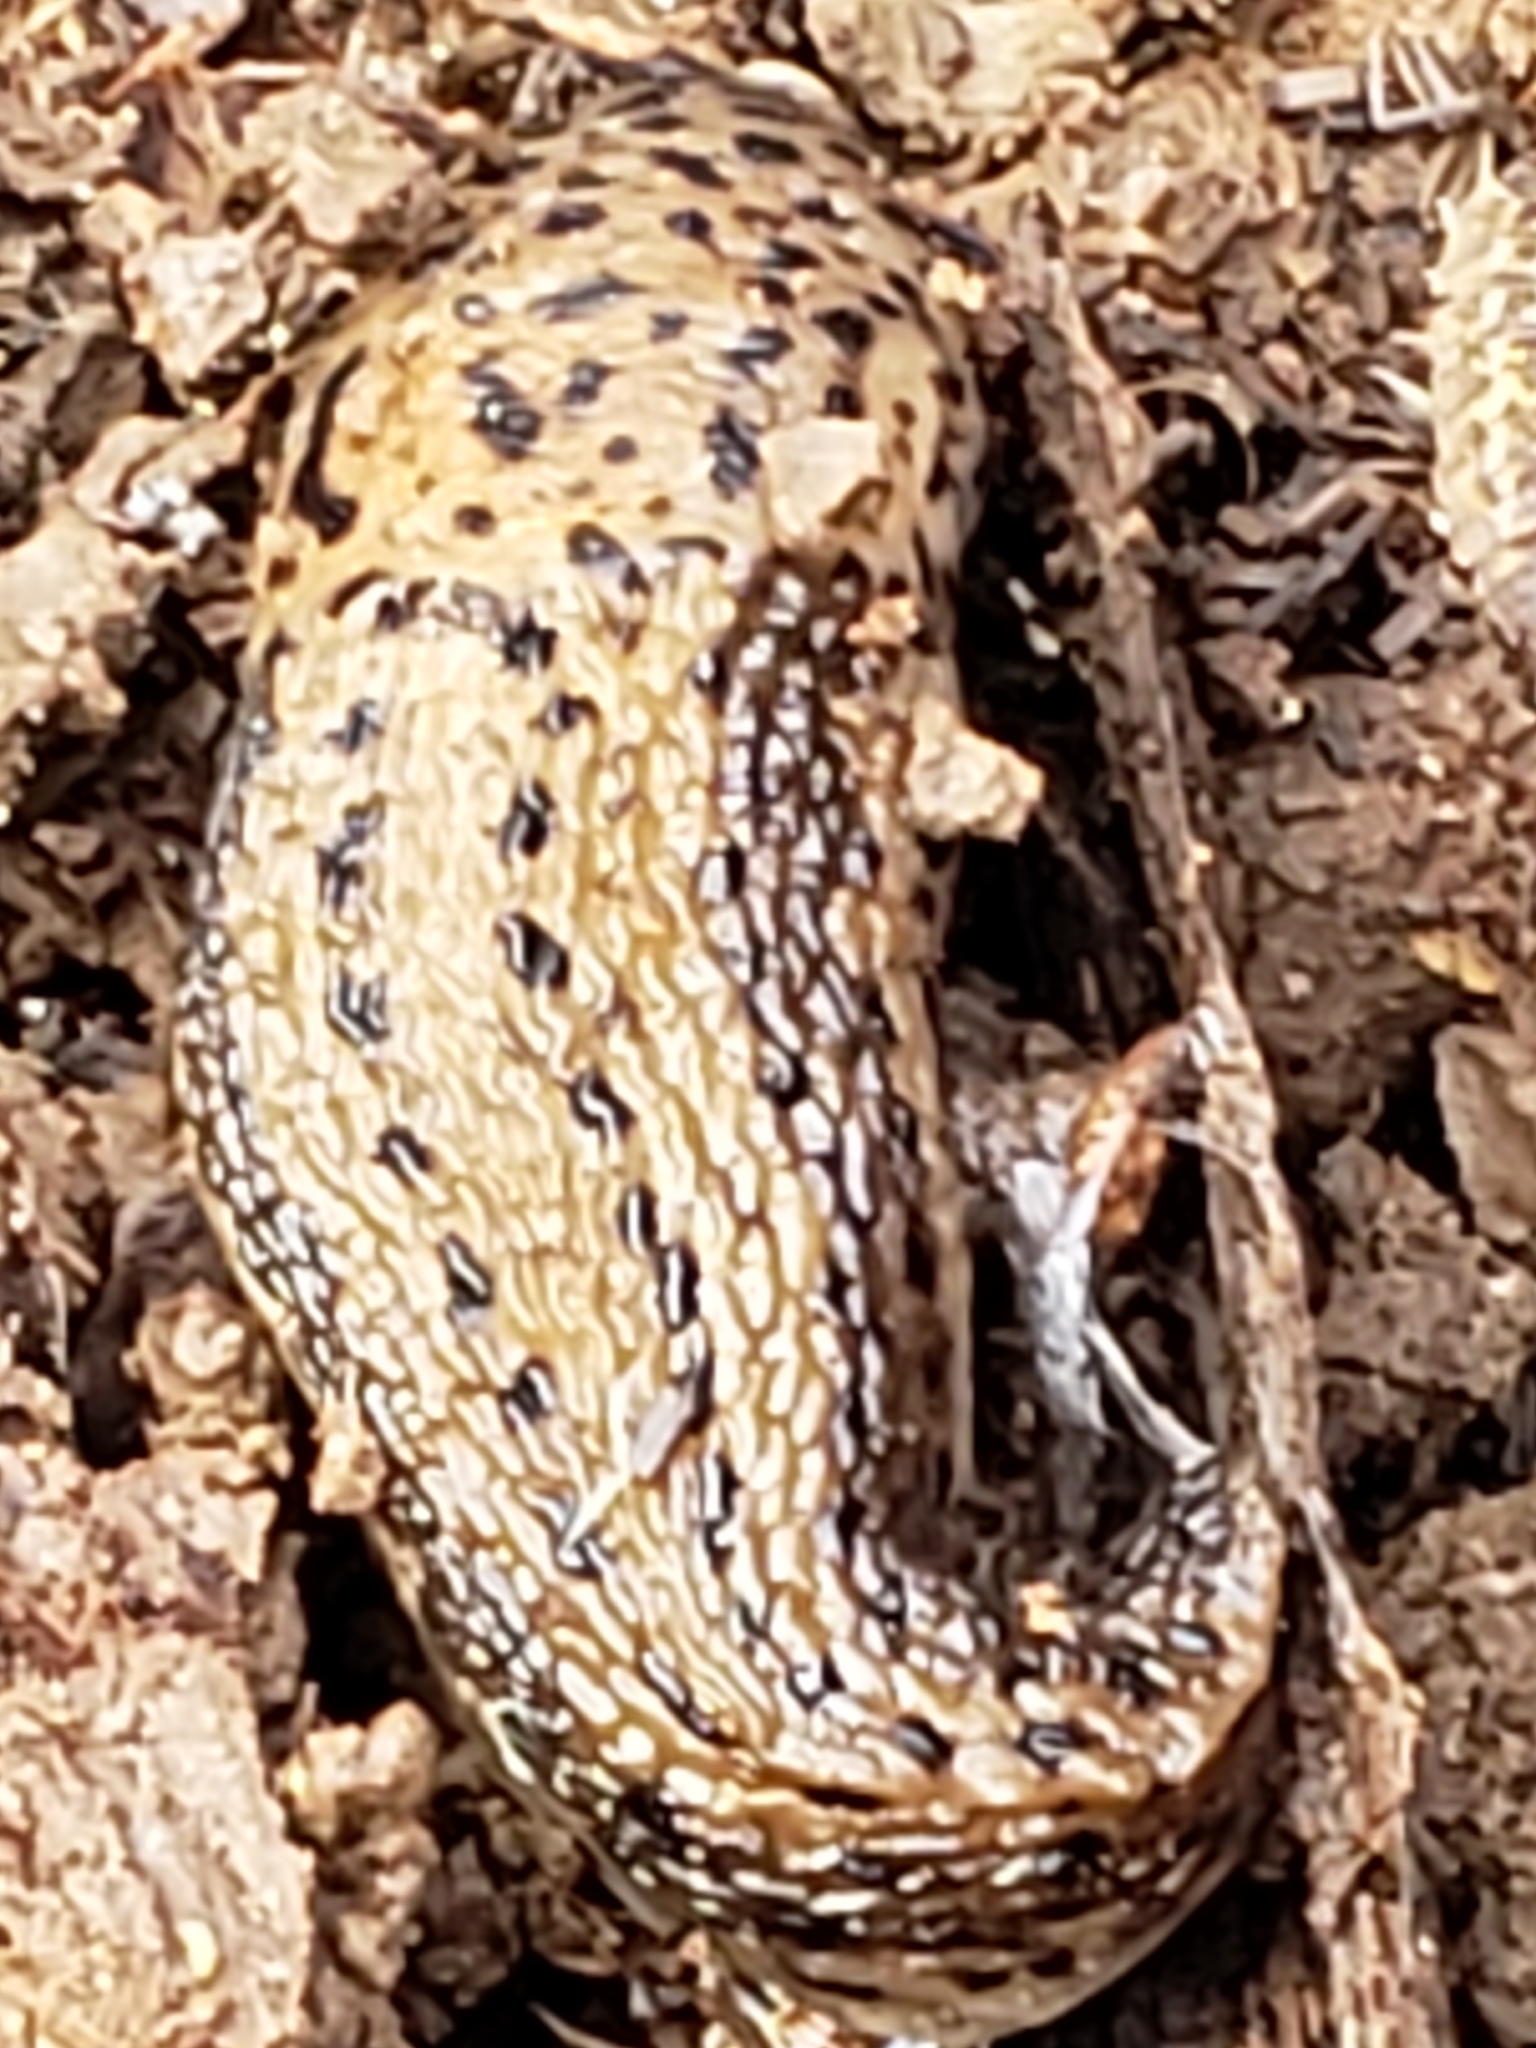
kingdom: Animalia
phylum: Mollusca
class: Gastropoda
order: Stylommatophora
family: Limacidae
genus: Limax
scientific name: Limax maximus
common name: Great grey slug
